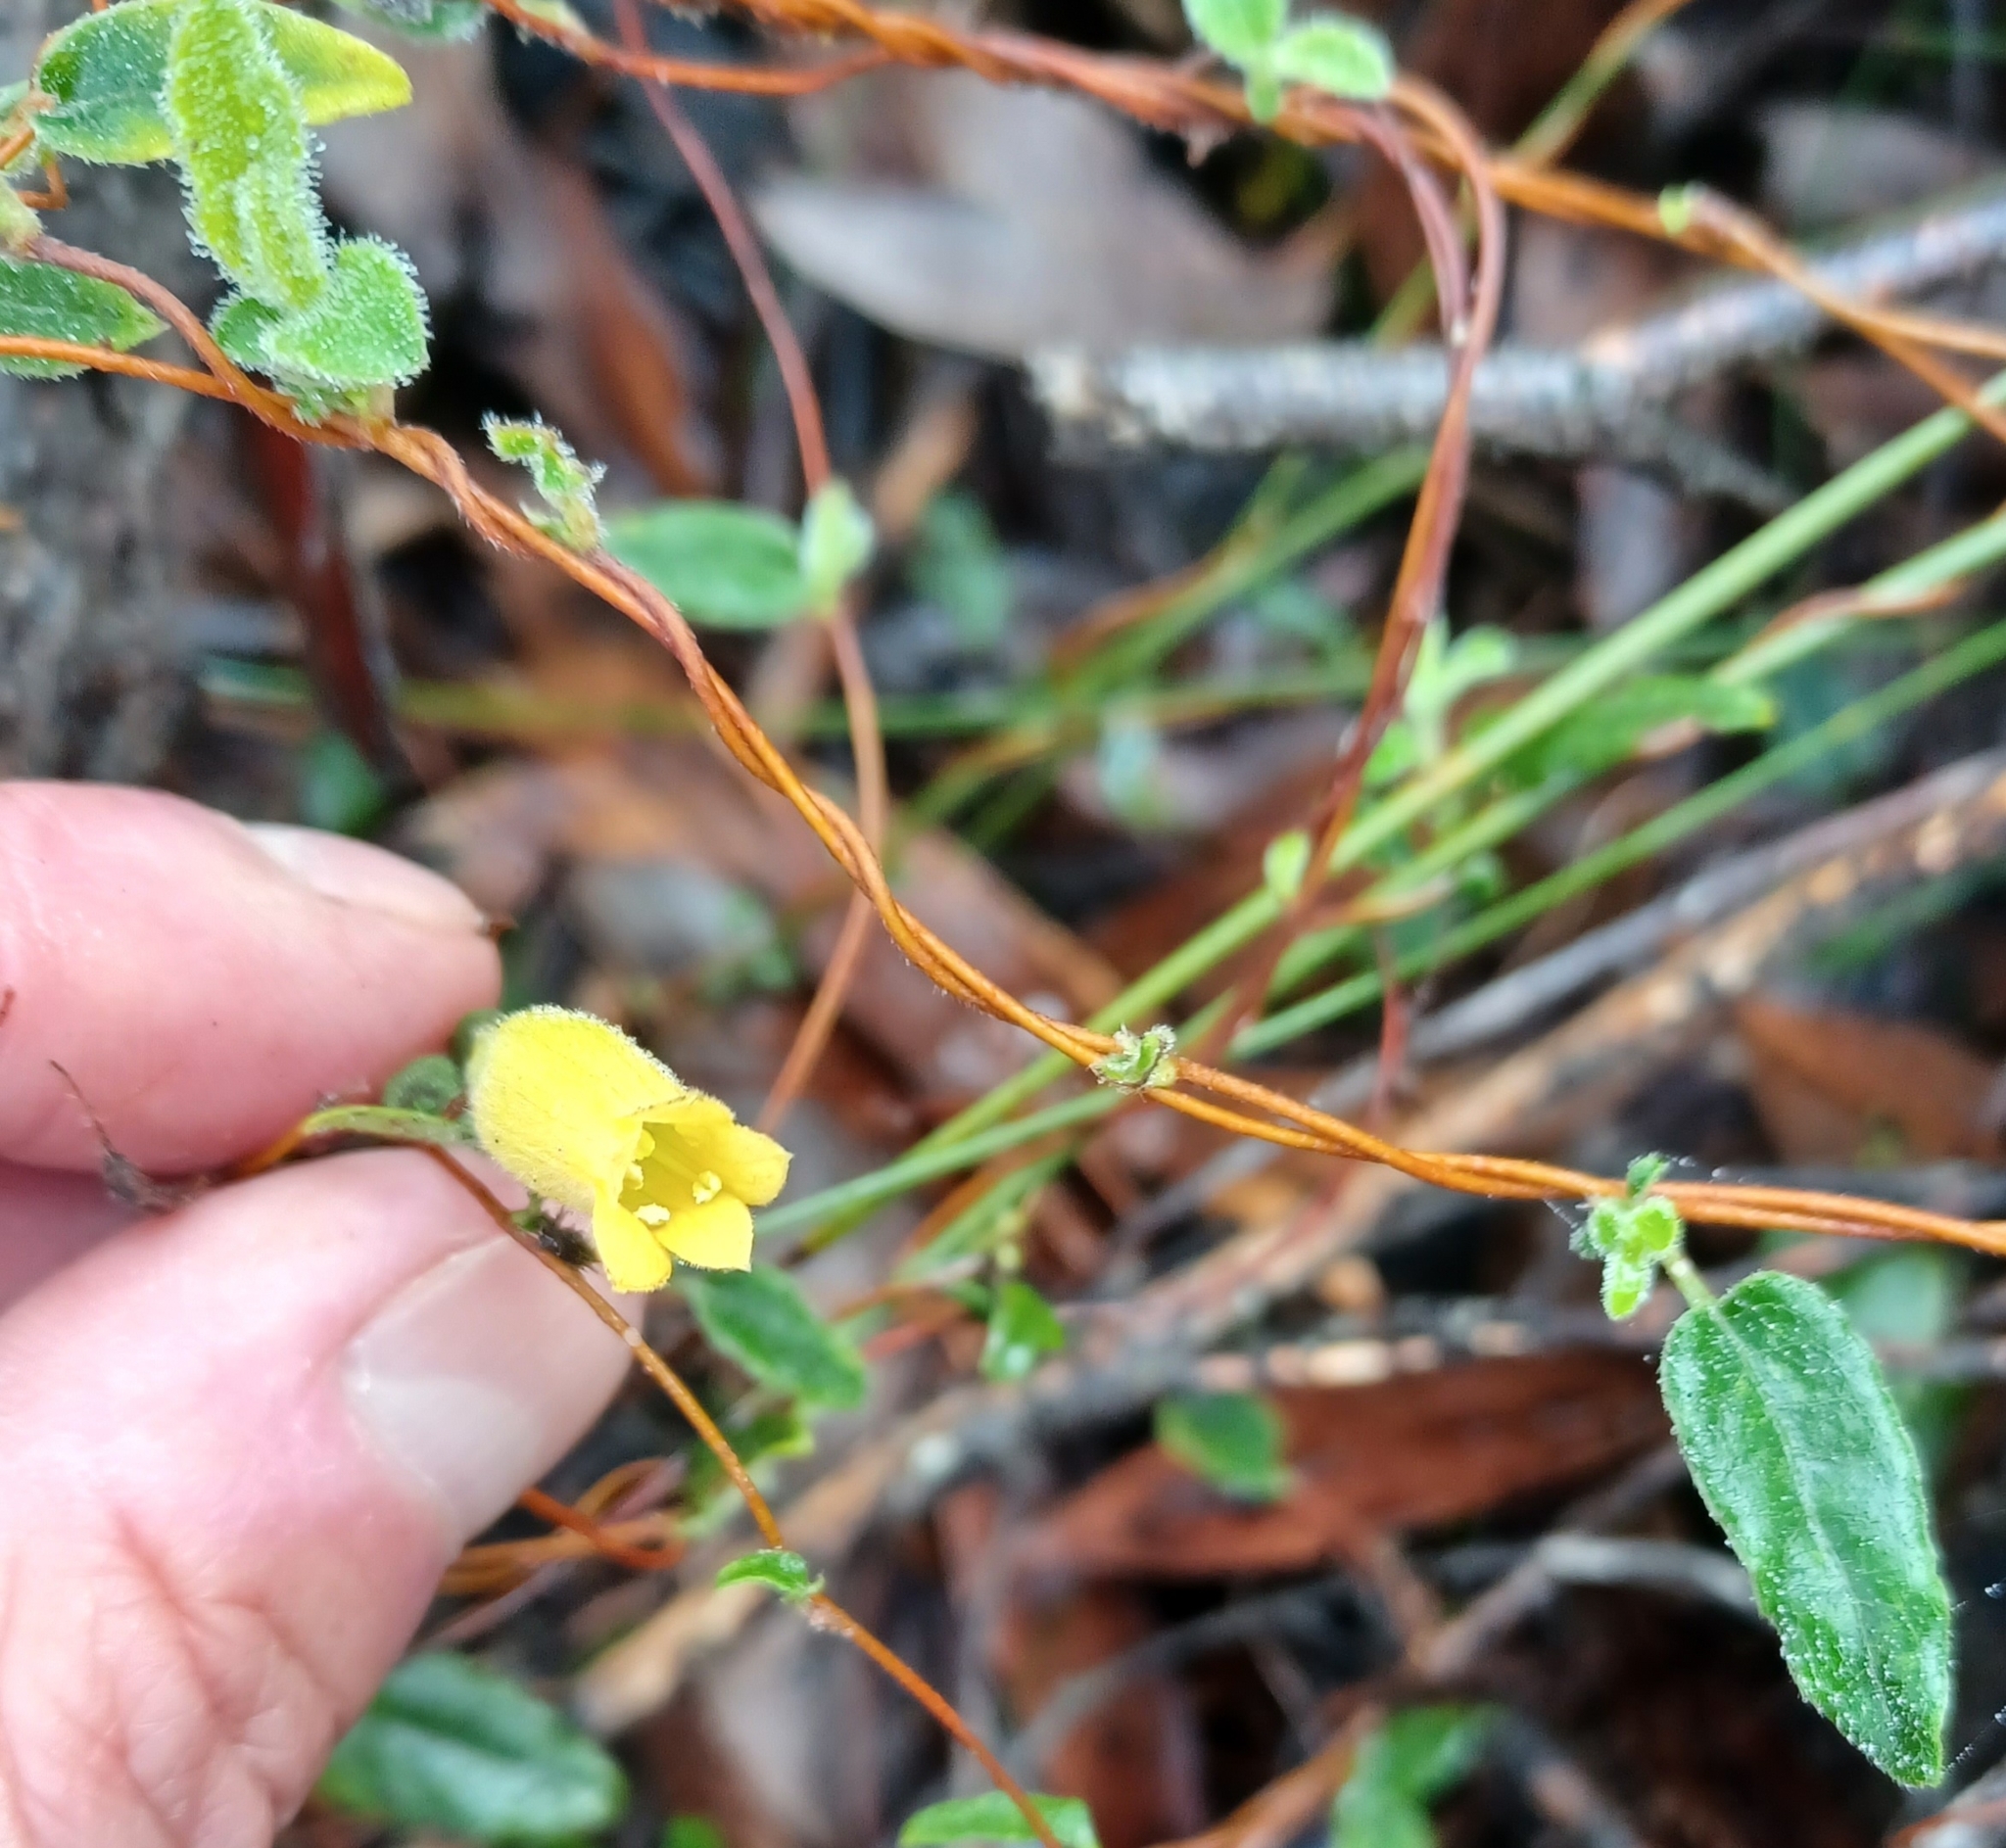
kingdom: Plantae
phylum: Tracheophyta
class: Magnoliopsida
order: Apiales
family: Pittosporaceae
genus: Marianthus
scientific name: Marianthus bignoniaceus
